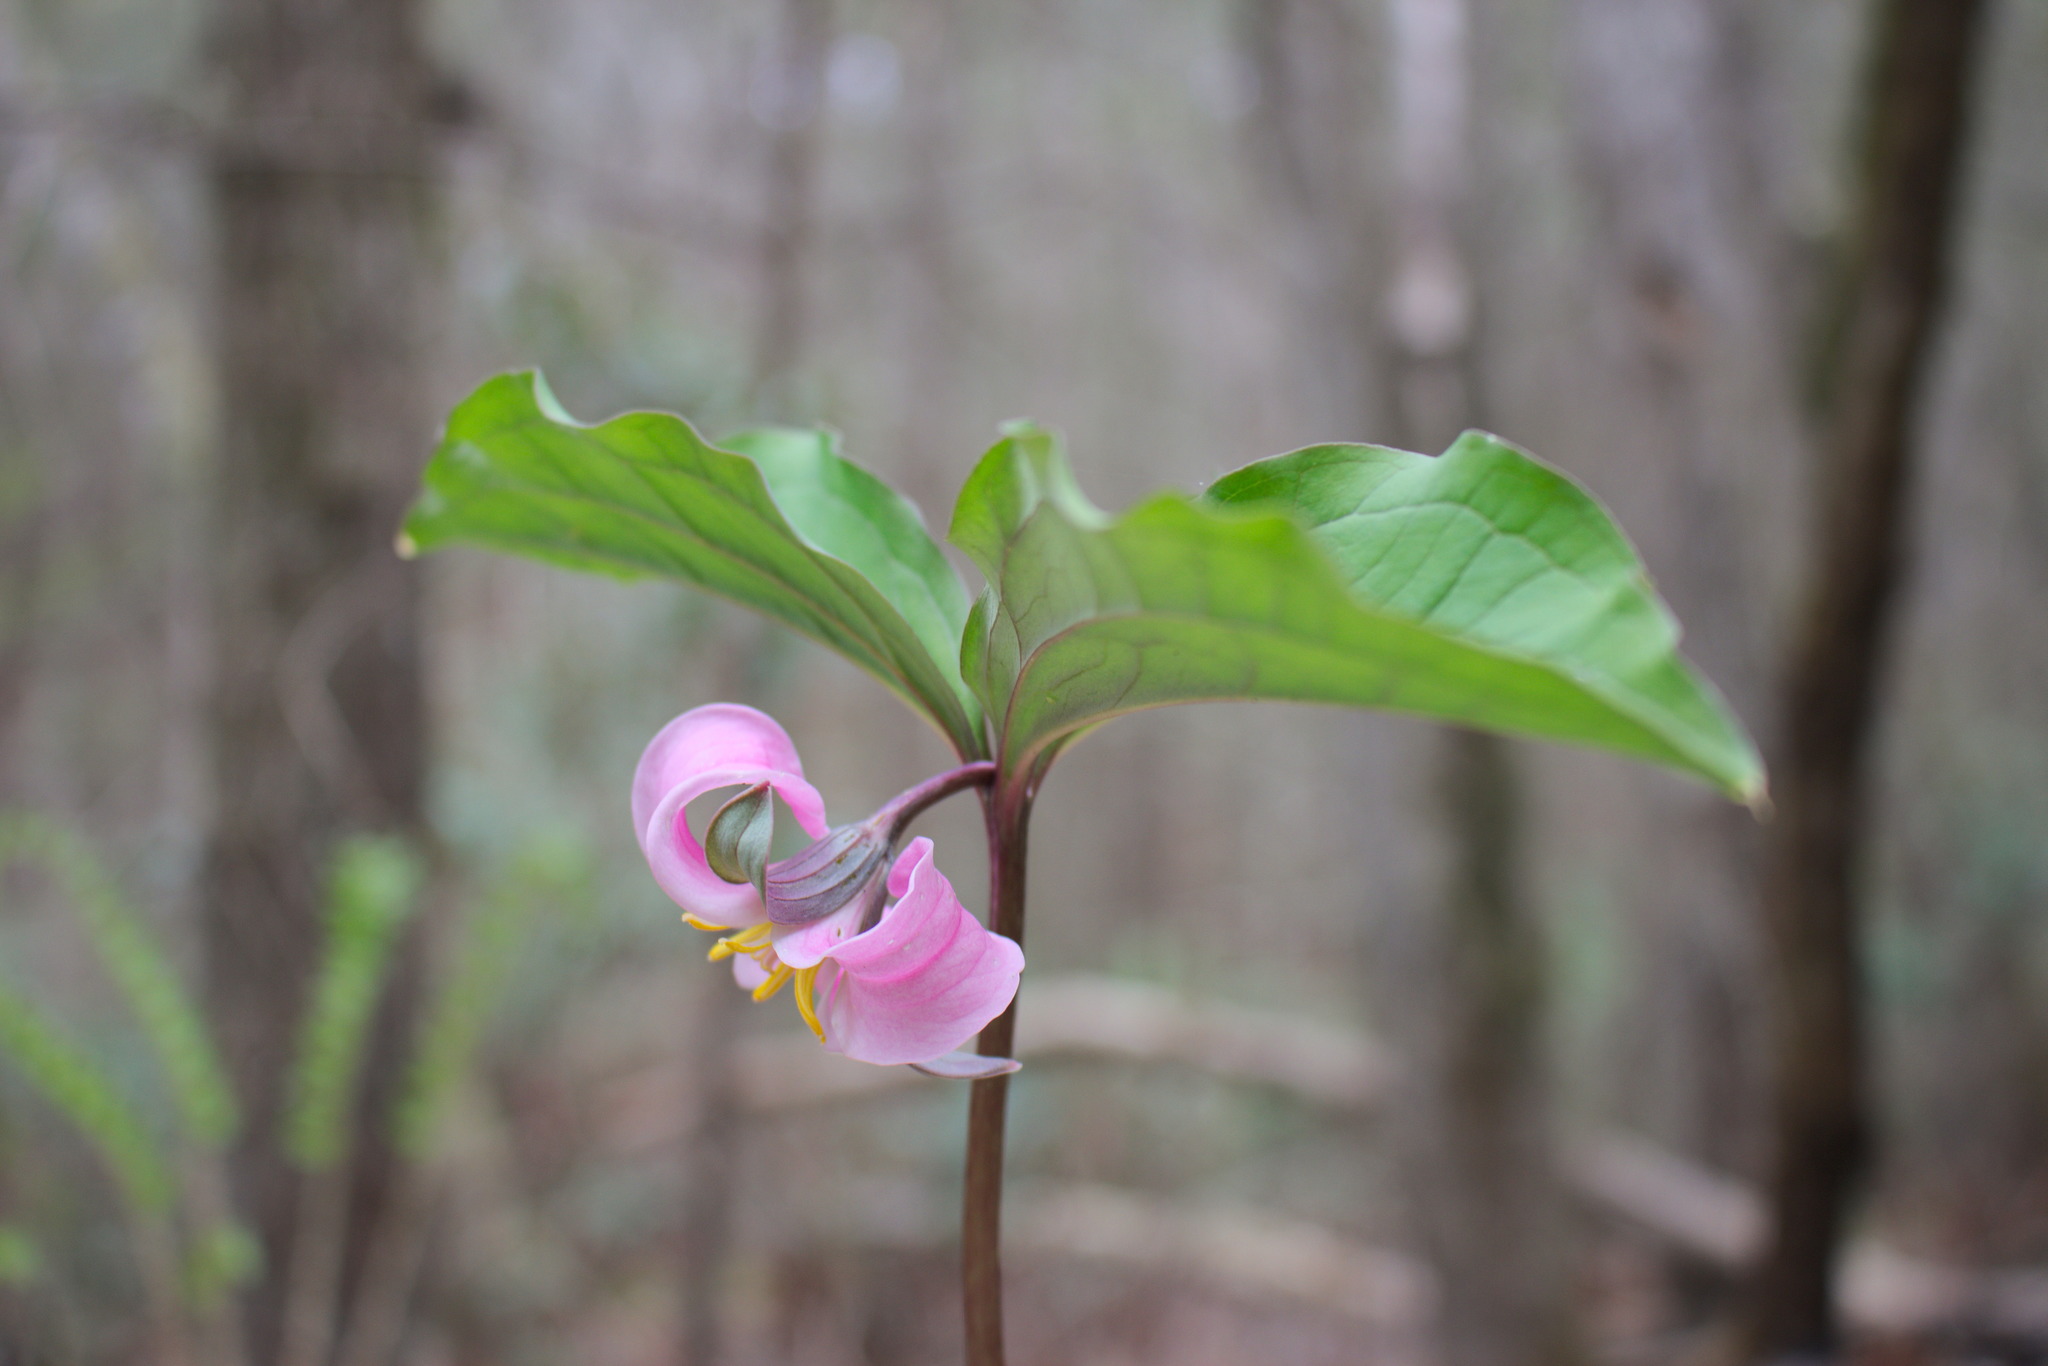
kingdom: Plantae
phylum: Tracheophyta
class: Liliopsida
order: Liliales
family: Melanthiaceae
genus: Trillium
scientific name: Trillium catesbaei
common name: Bashful trillium
